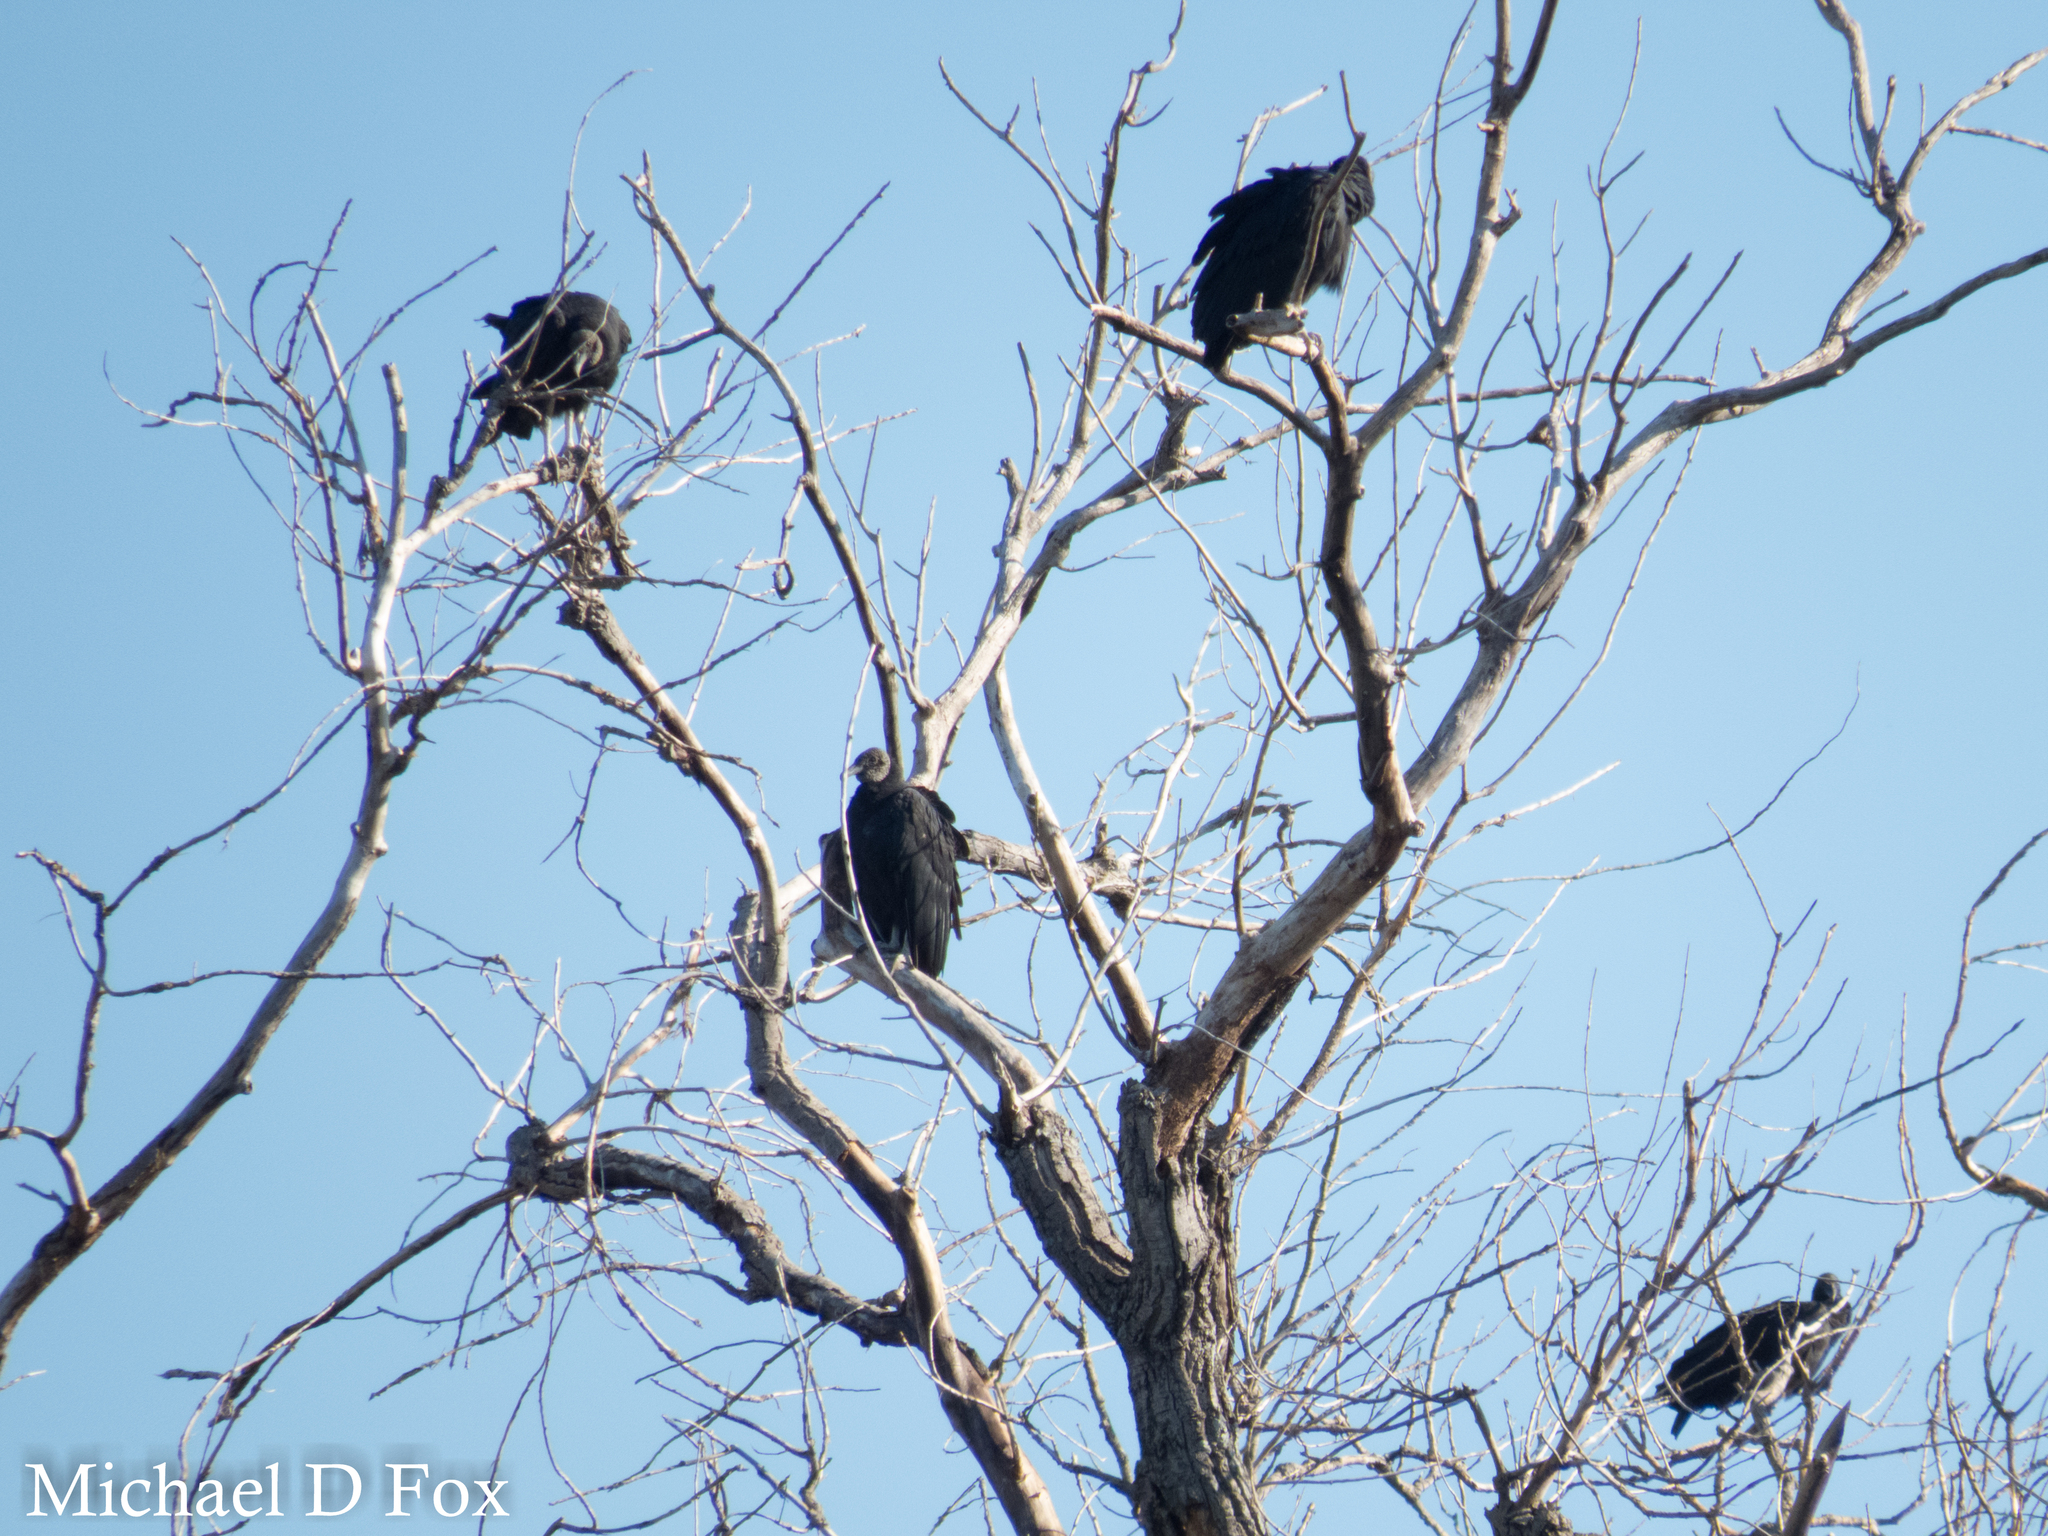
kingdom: Animalia
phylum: Chordata
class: Aves
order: Accipitriformes
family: Cathartidae
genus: Coragyps
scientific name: Coragyps atratus
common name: Black vulture
